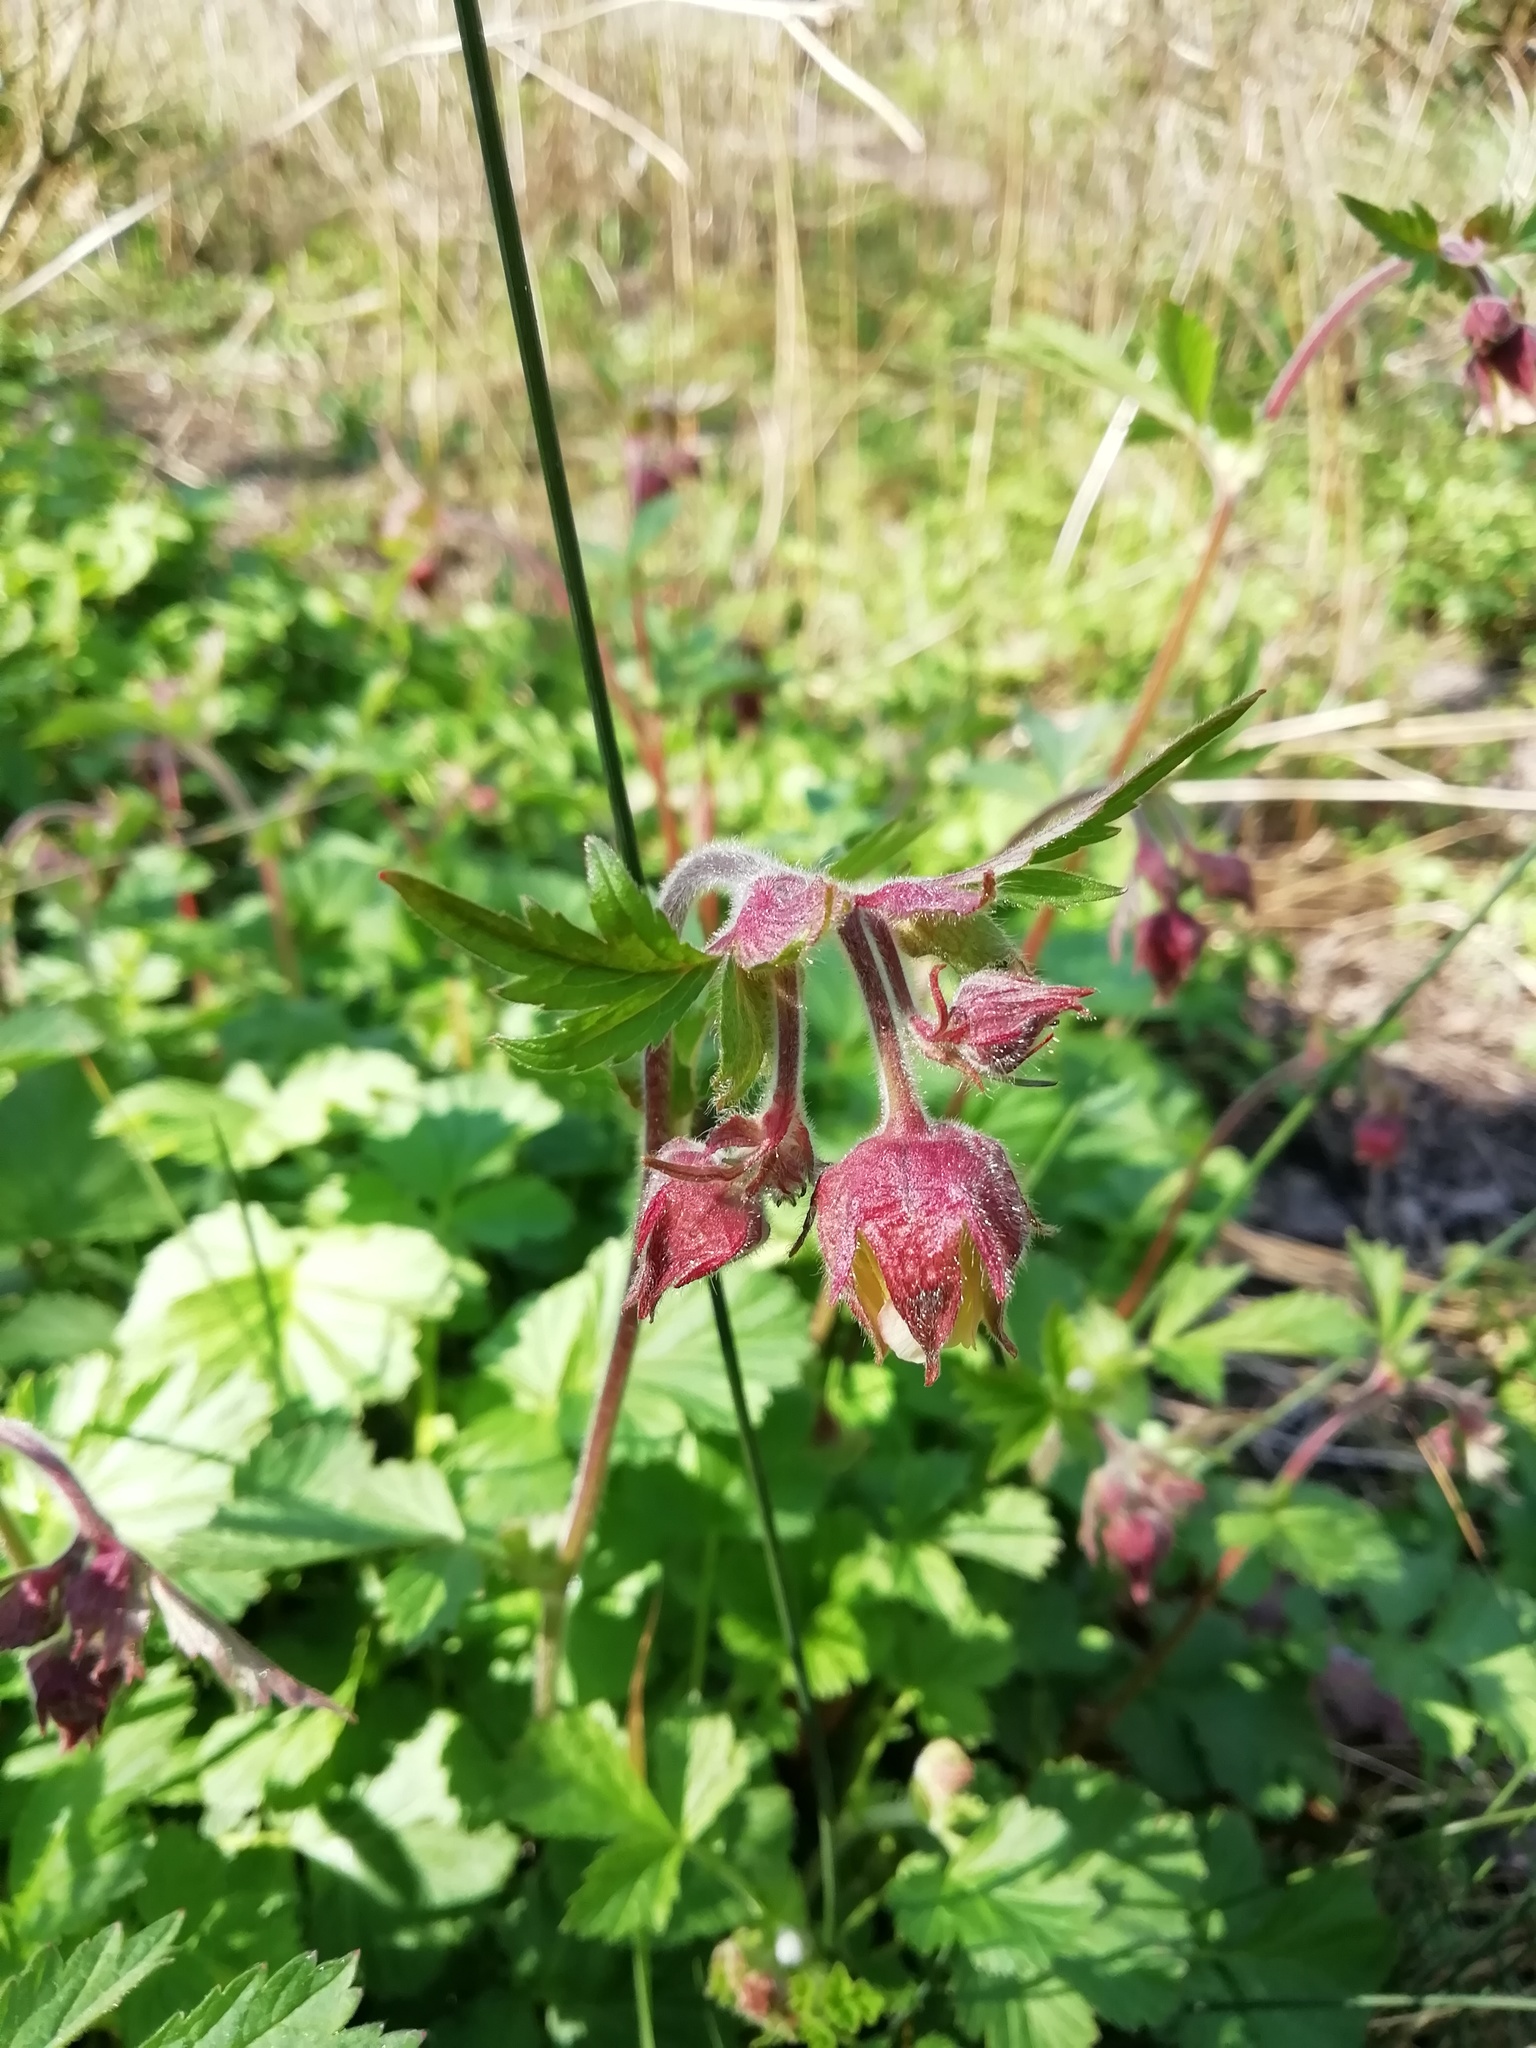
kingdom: Plantae
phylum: Tracheophyta
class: Magnoliopsida
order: Rosales
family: Rosaceae
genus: Geum
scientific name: Geum rivale
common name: Water avens
